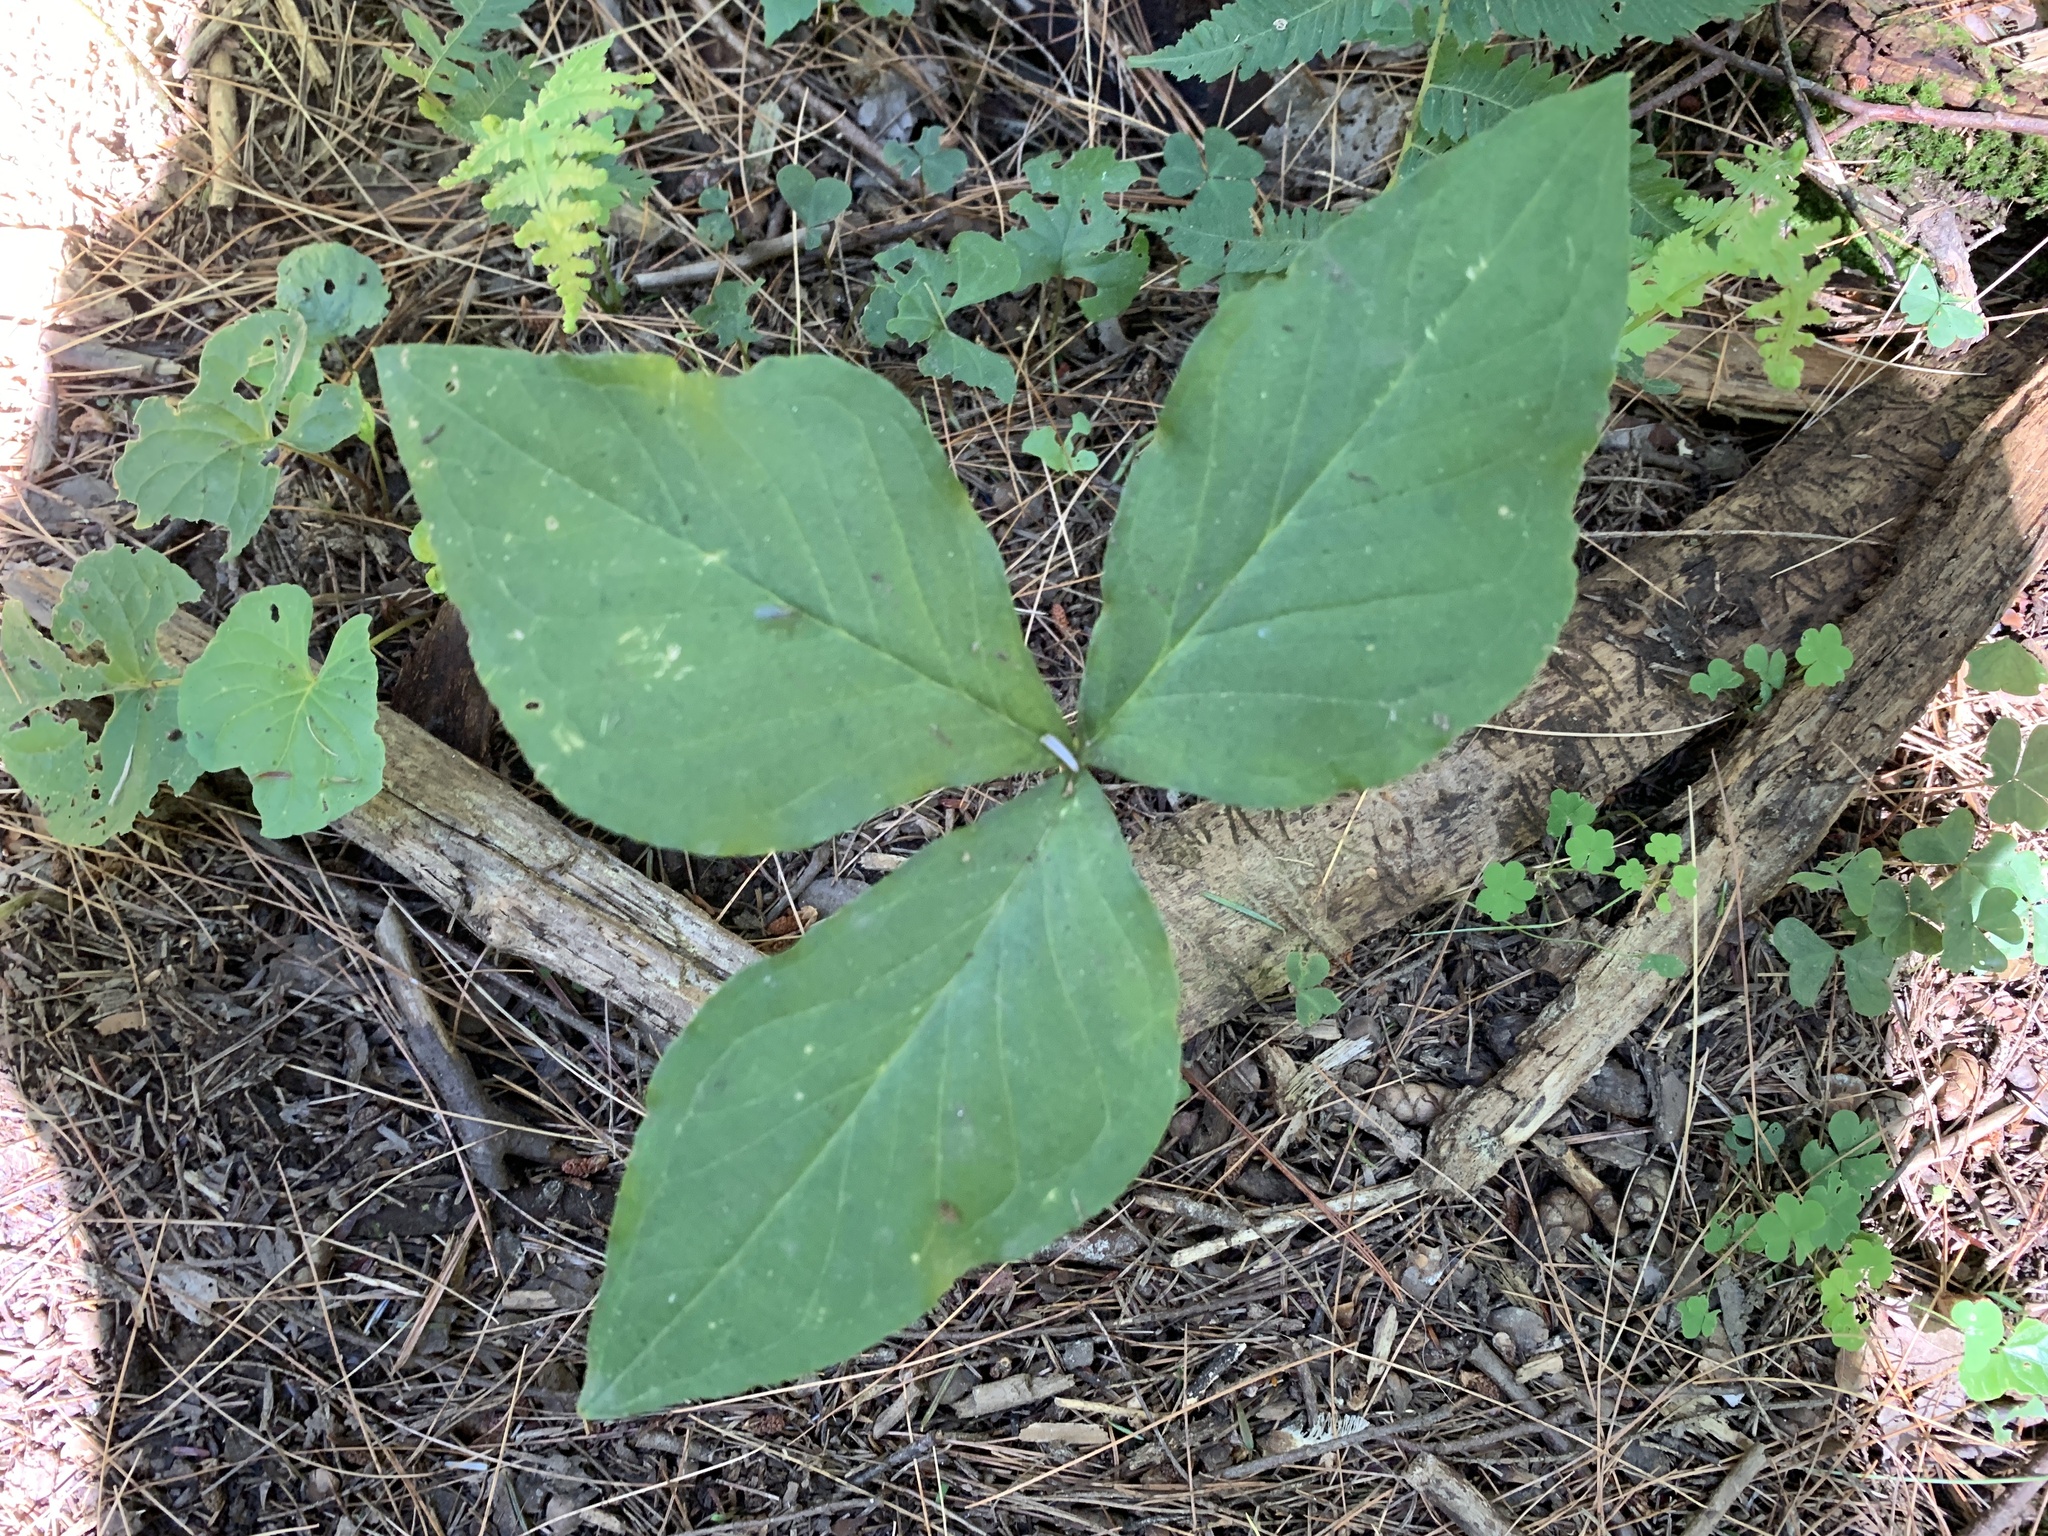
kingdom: Plantae
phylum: Tracheophyta
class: Liliopsida
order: Alismatales
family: Araceae
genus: Arisaema
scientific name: Arisaema
